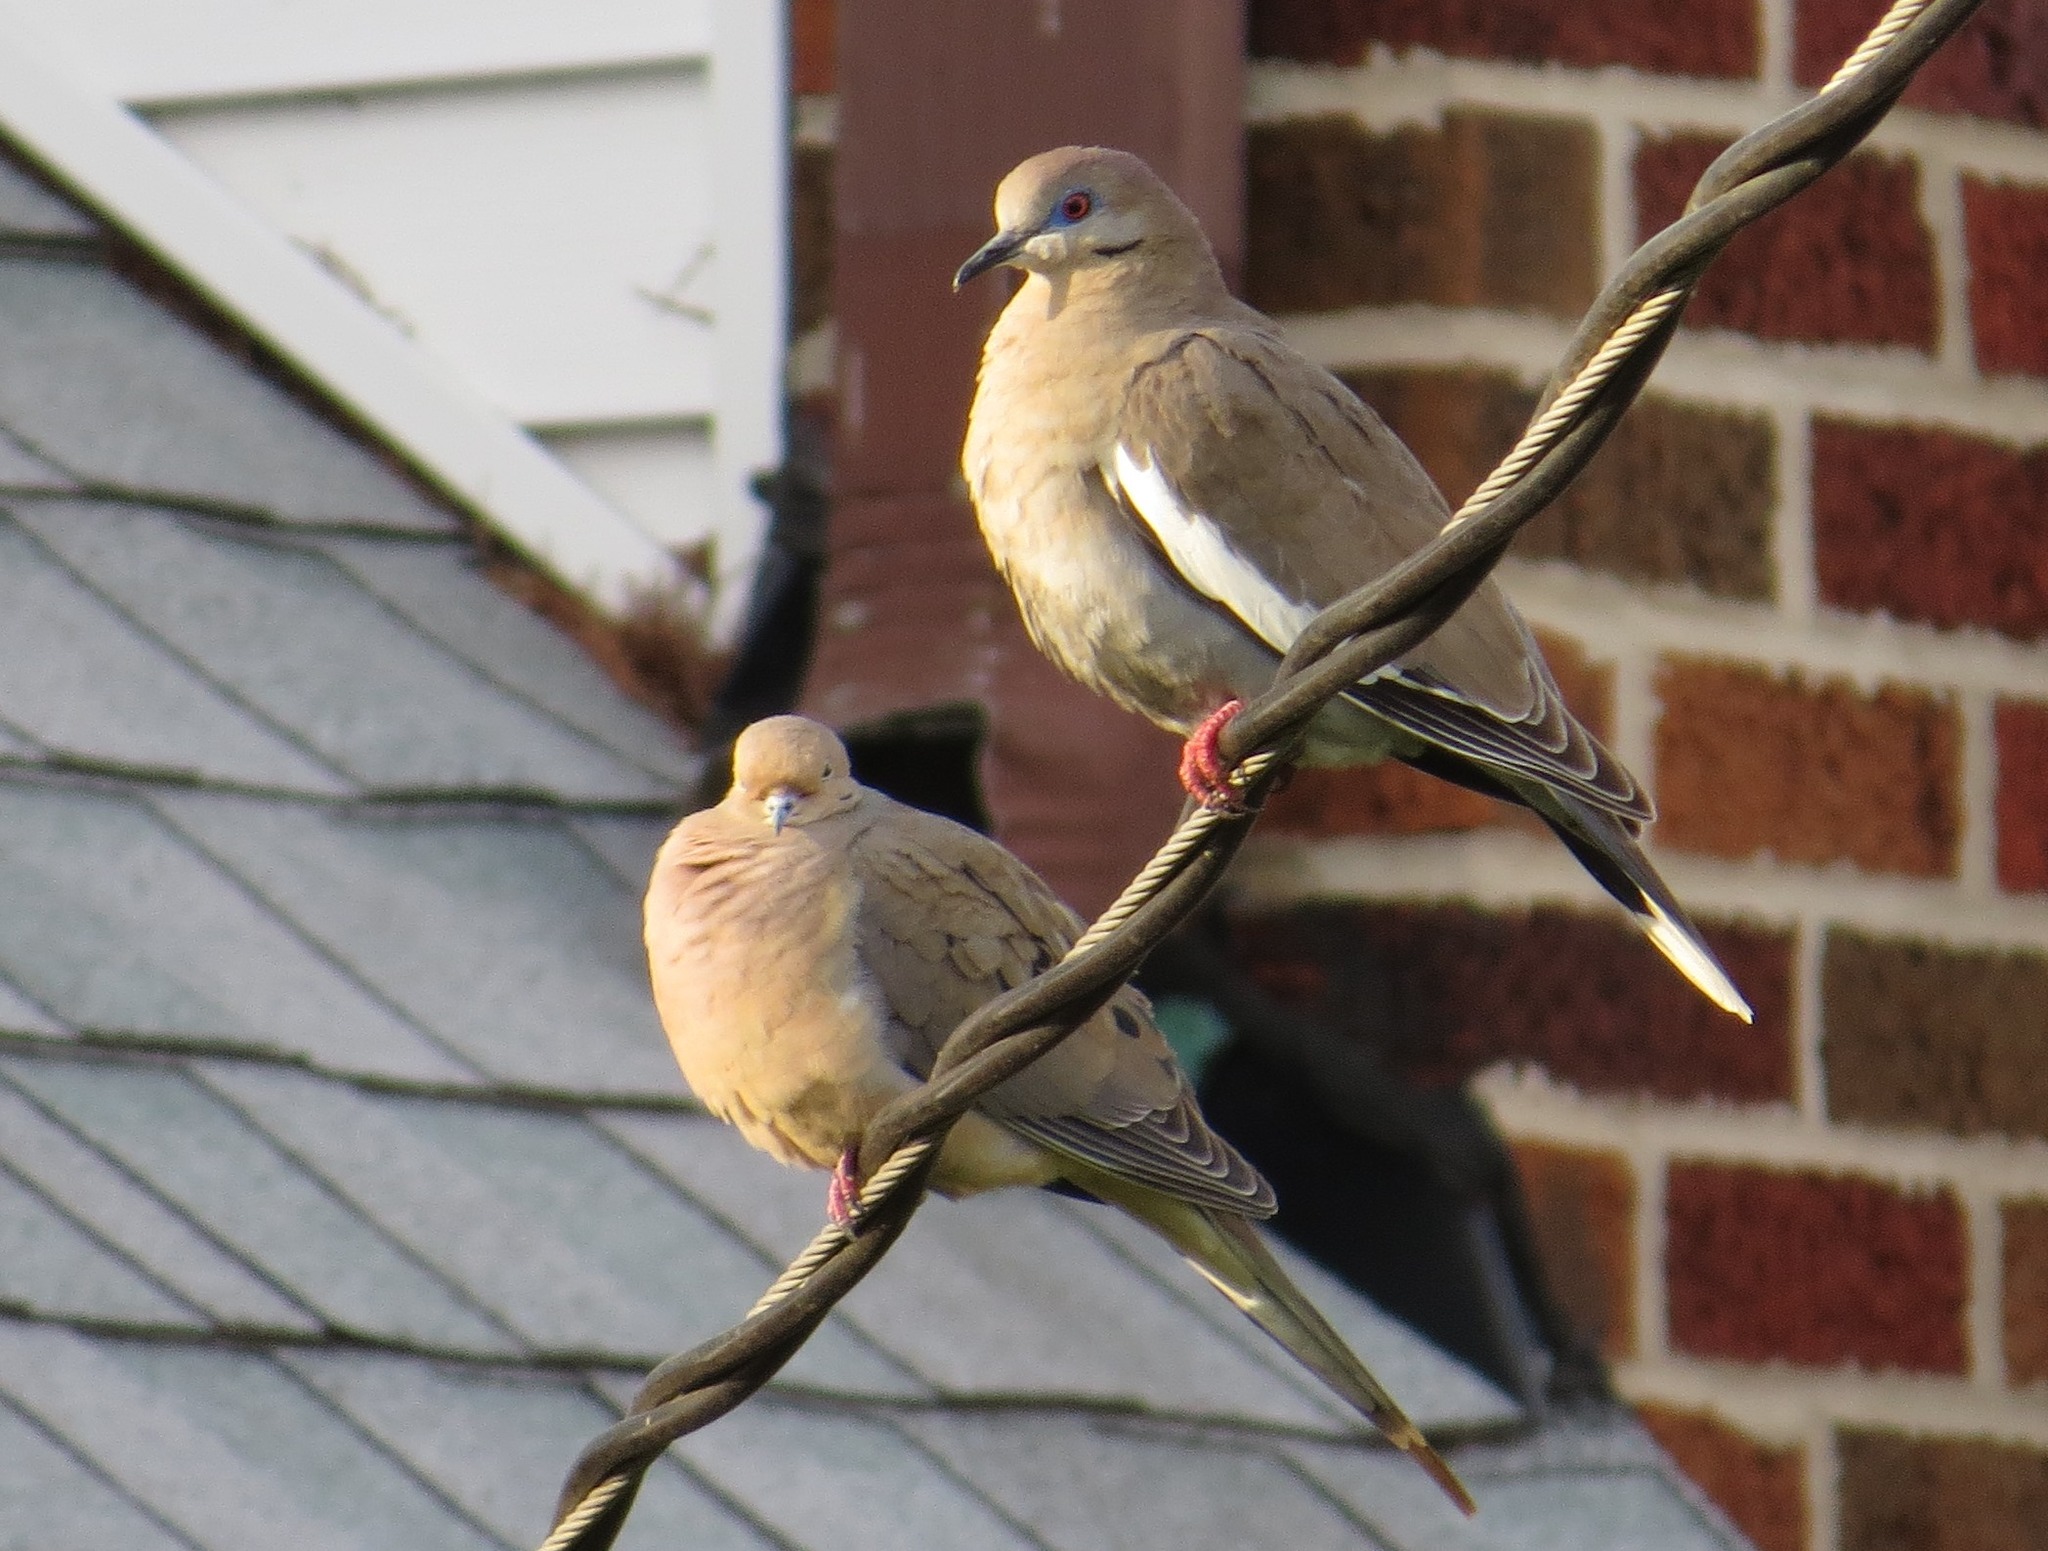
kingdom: Animalia
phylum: Chordata
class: Aves
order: Columbiformes
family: Columbidae
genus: Zenaida
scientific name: Zenaida asiatica
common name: White-winged dove
